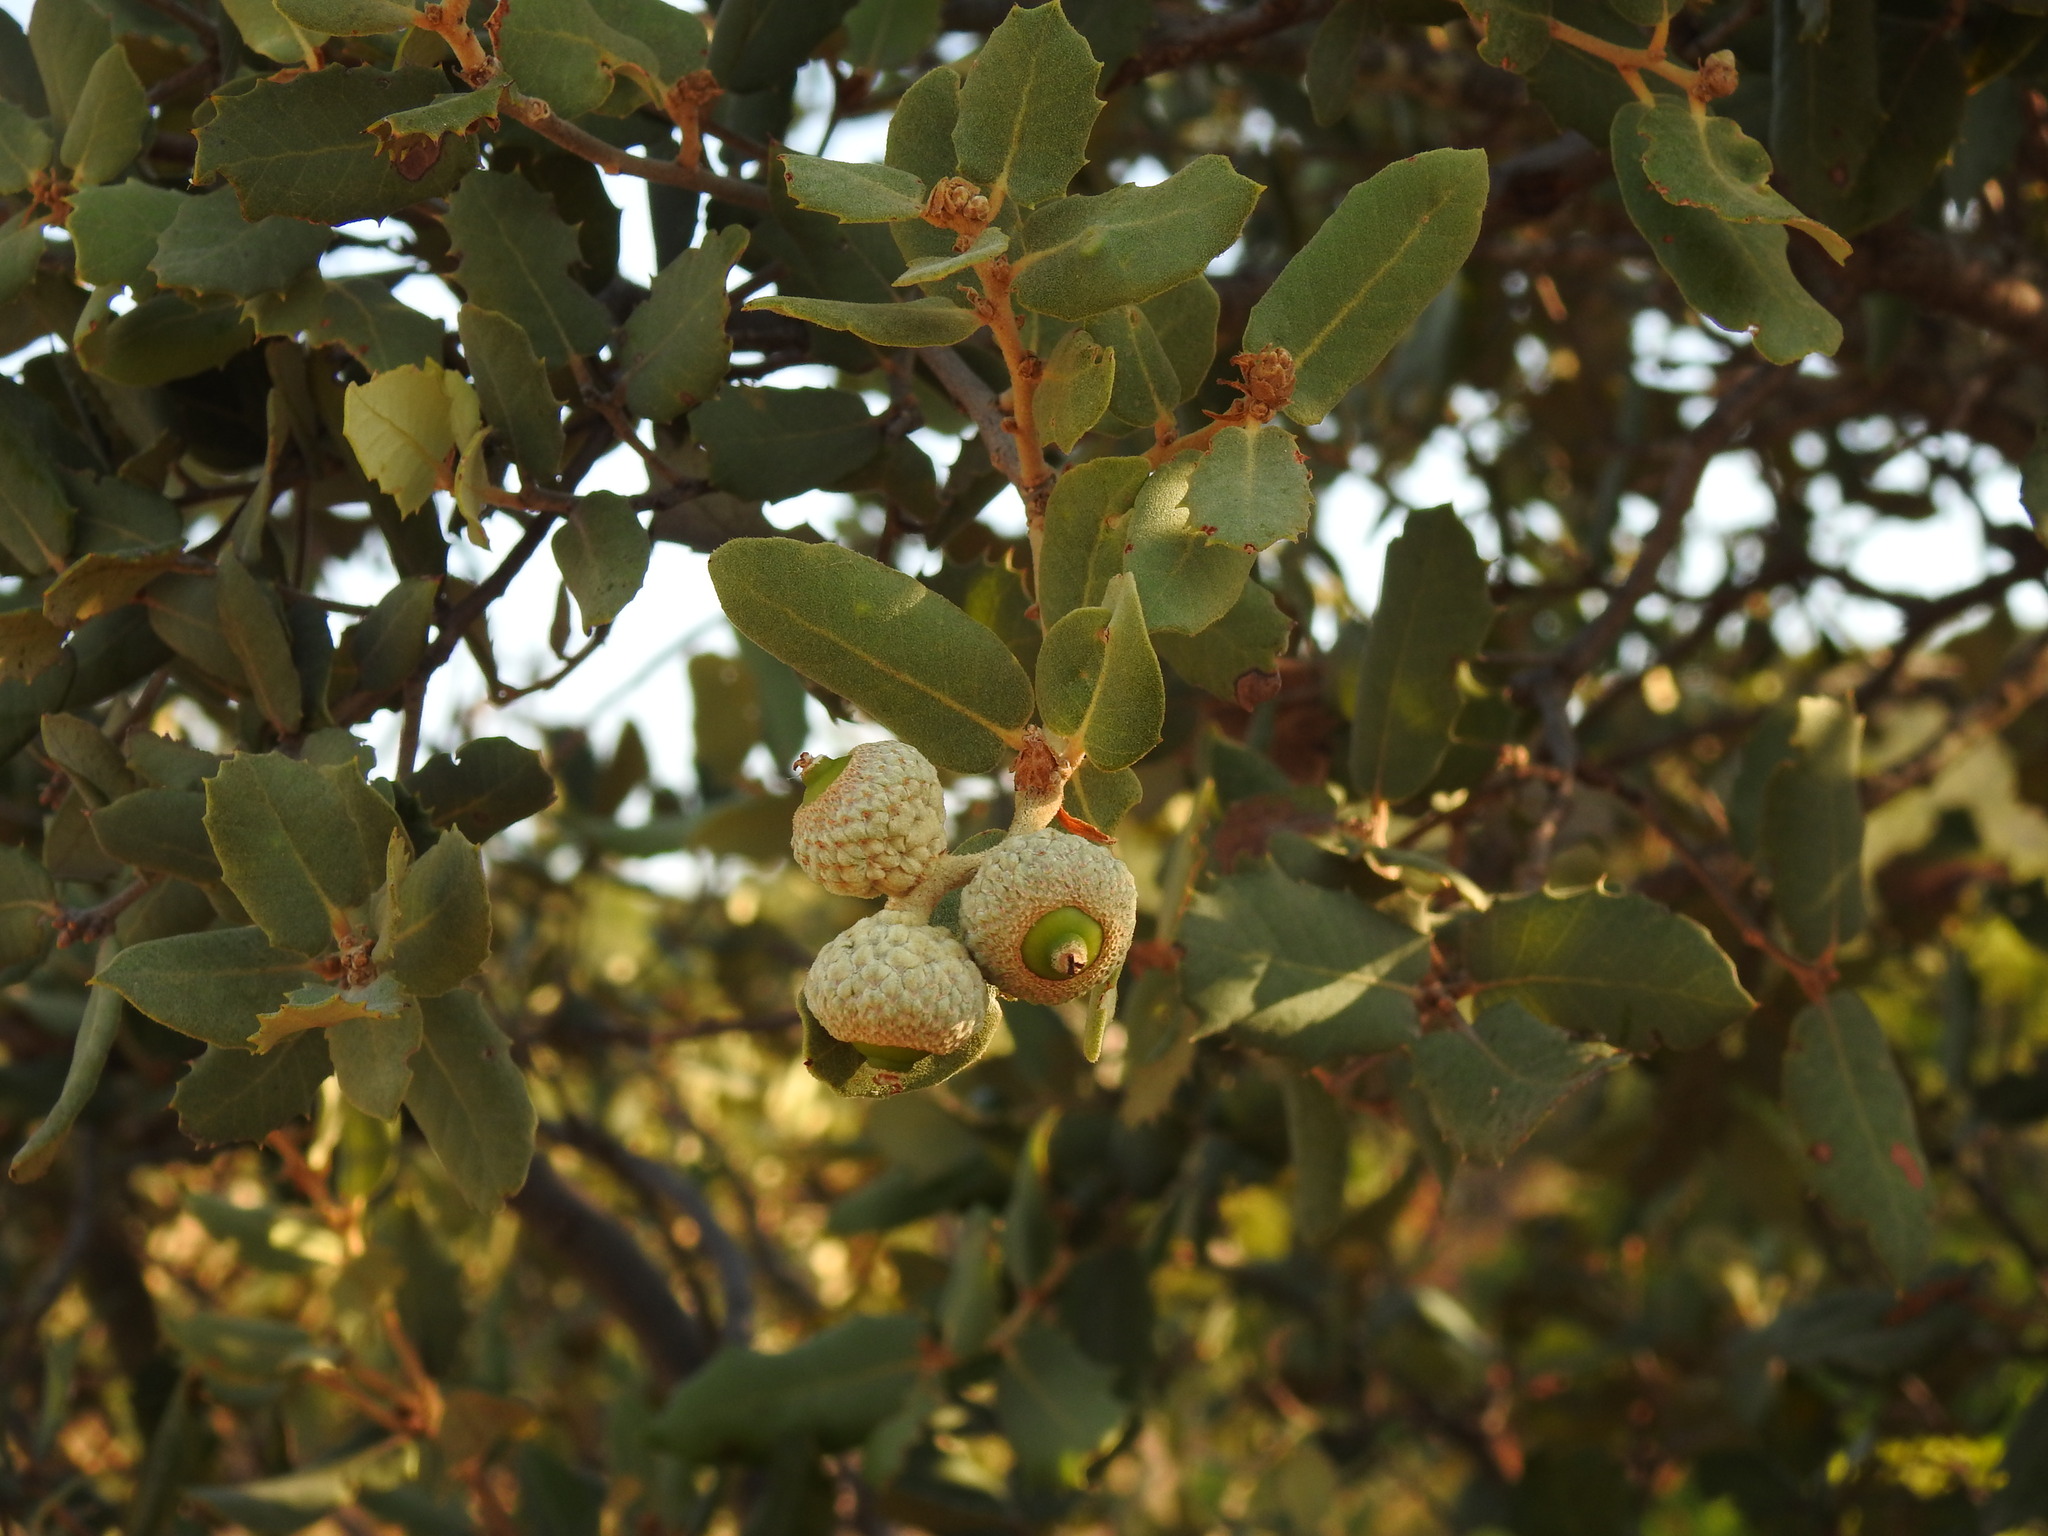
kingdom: Plantae
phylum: Tracheophyta
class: Magnoliopsida
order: Fagales
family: Fagaceae
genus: Quercus
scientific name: Quercus rotundifolia
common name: Holm oak
